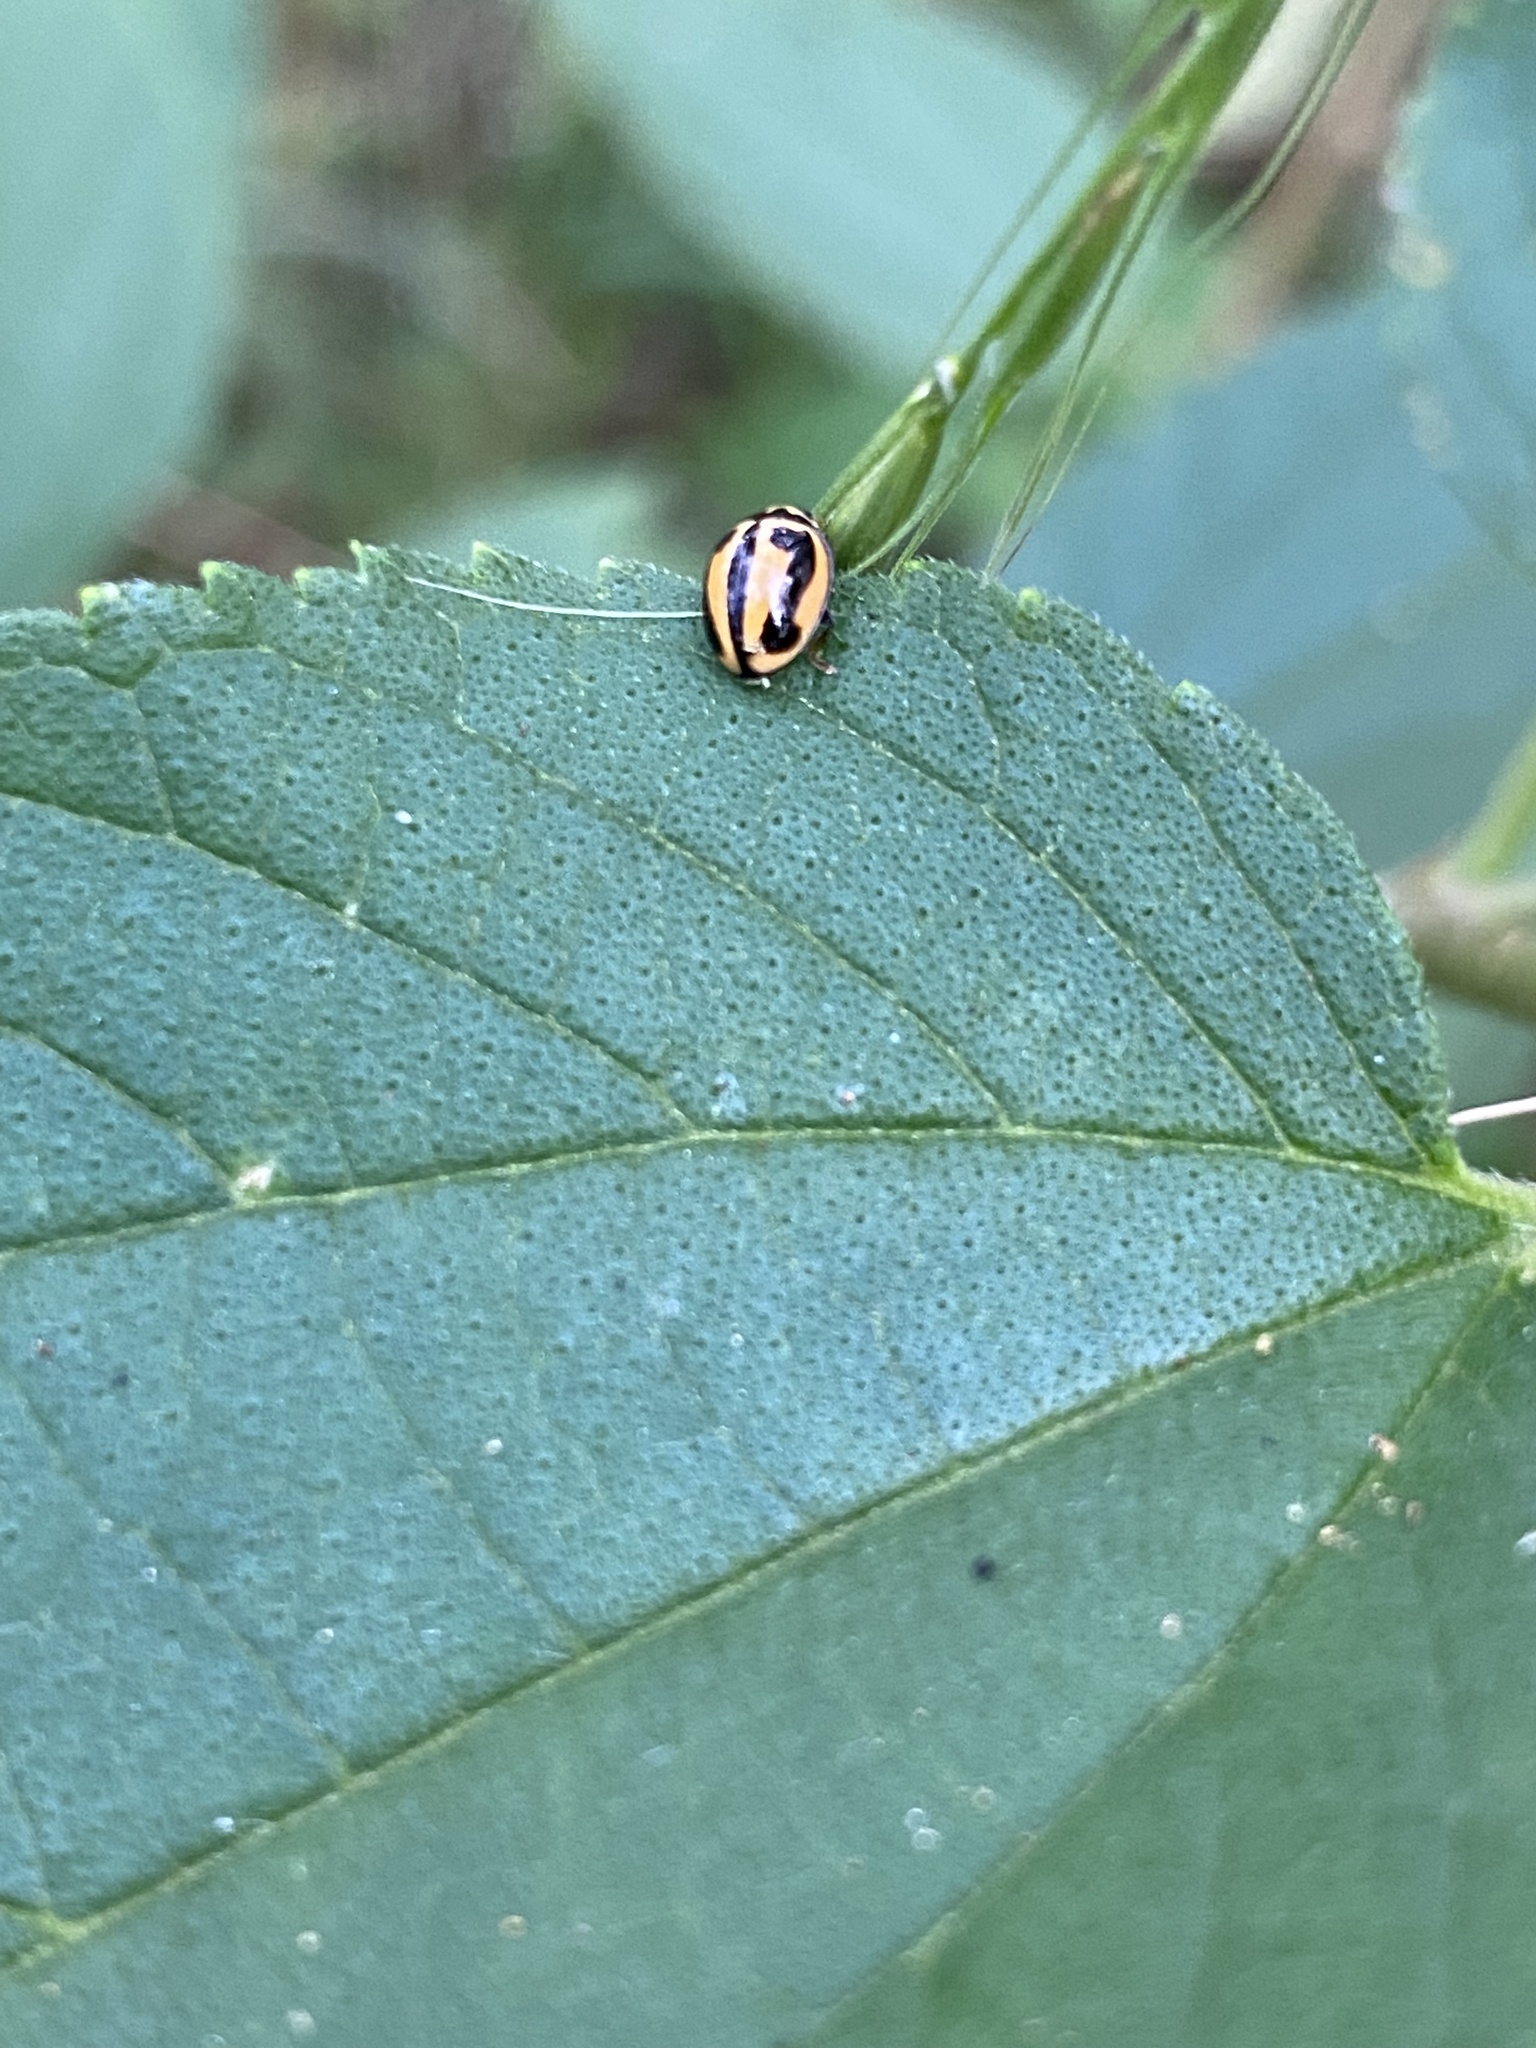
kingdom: Animalia
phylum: Arthropoda
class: Insecta
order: Coleoptera
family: Coccinellidae
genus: Micraspis
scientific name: Micraspis frenata
